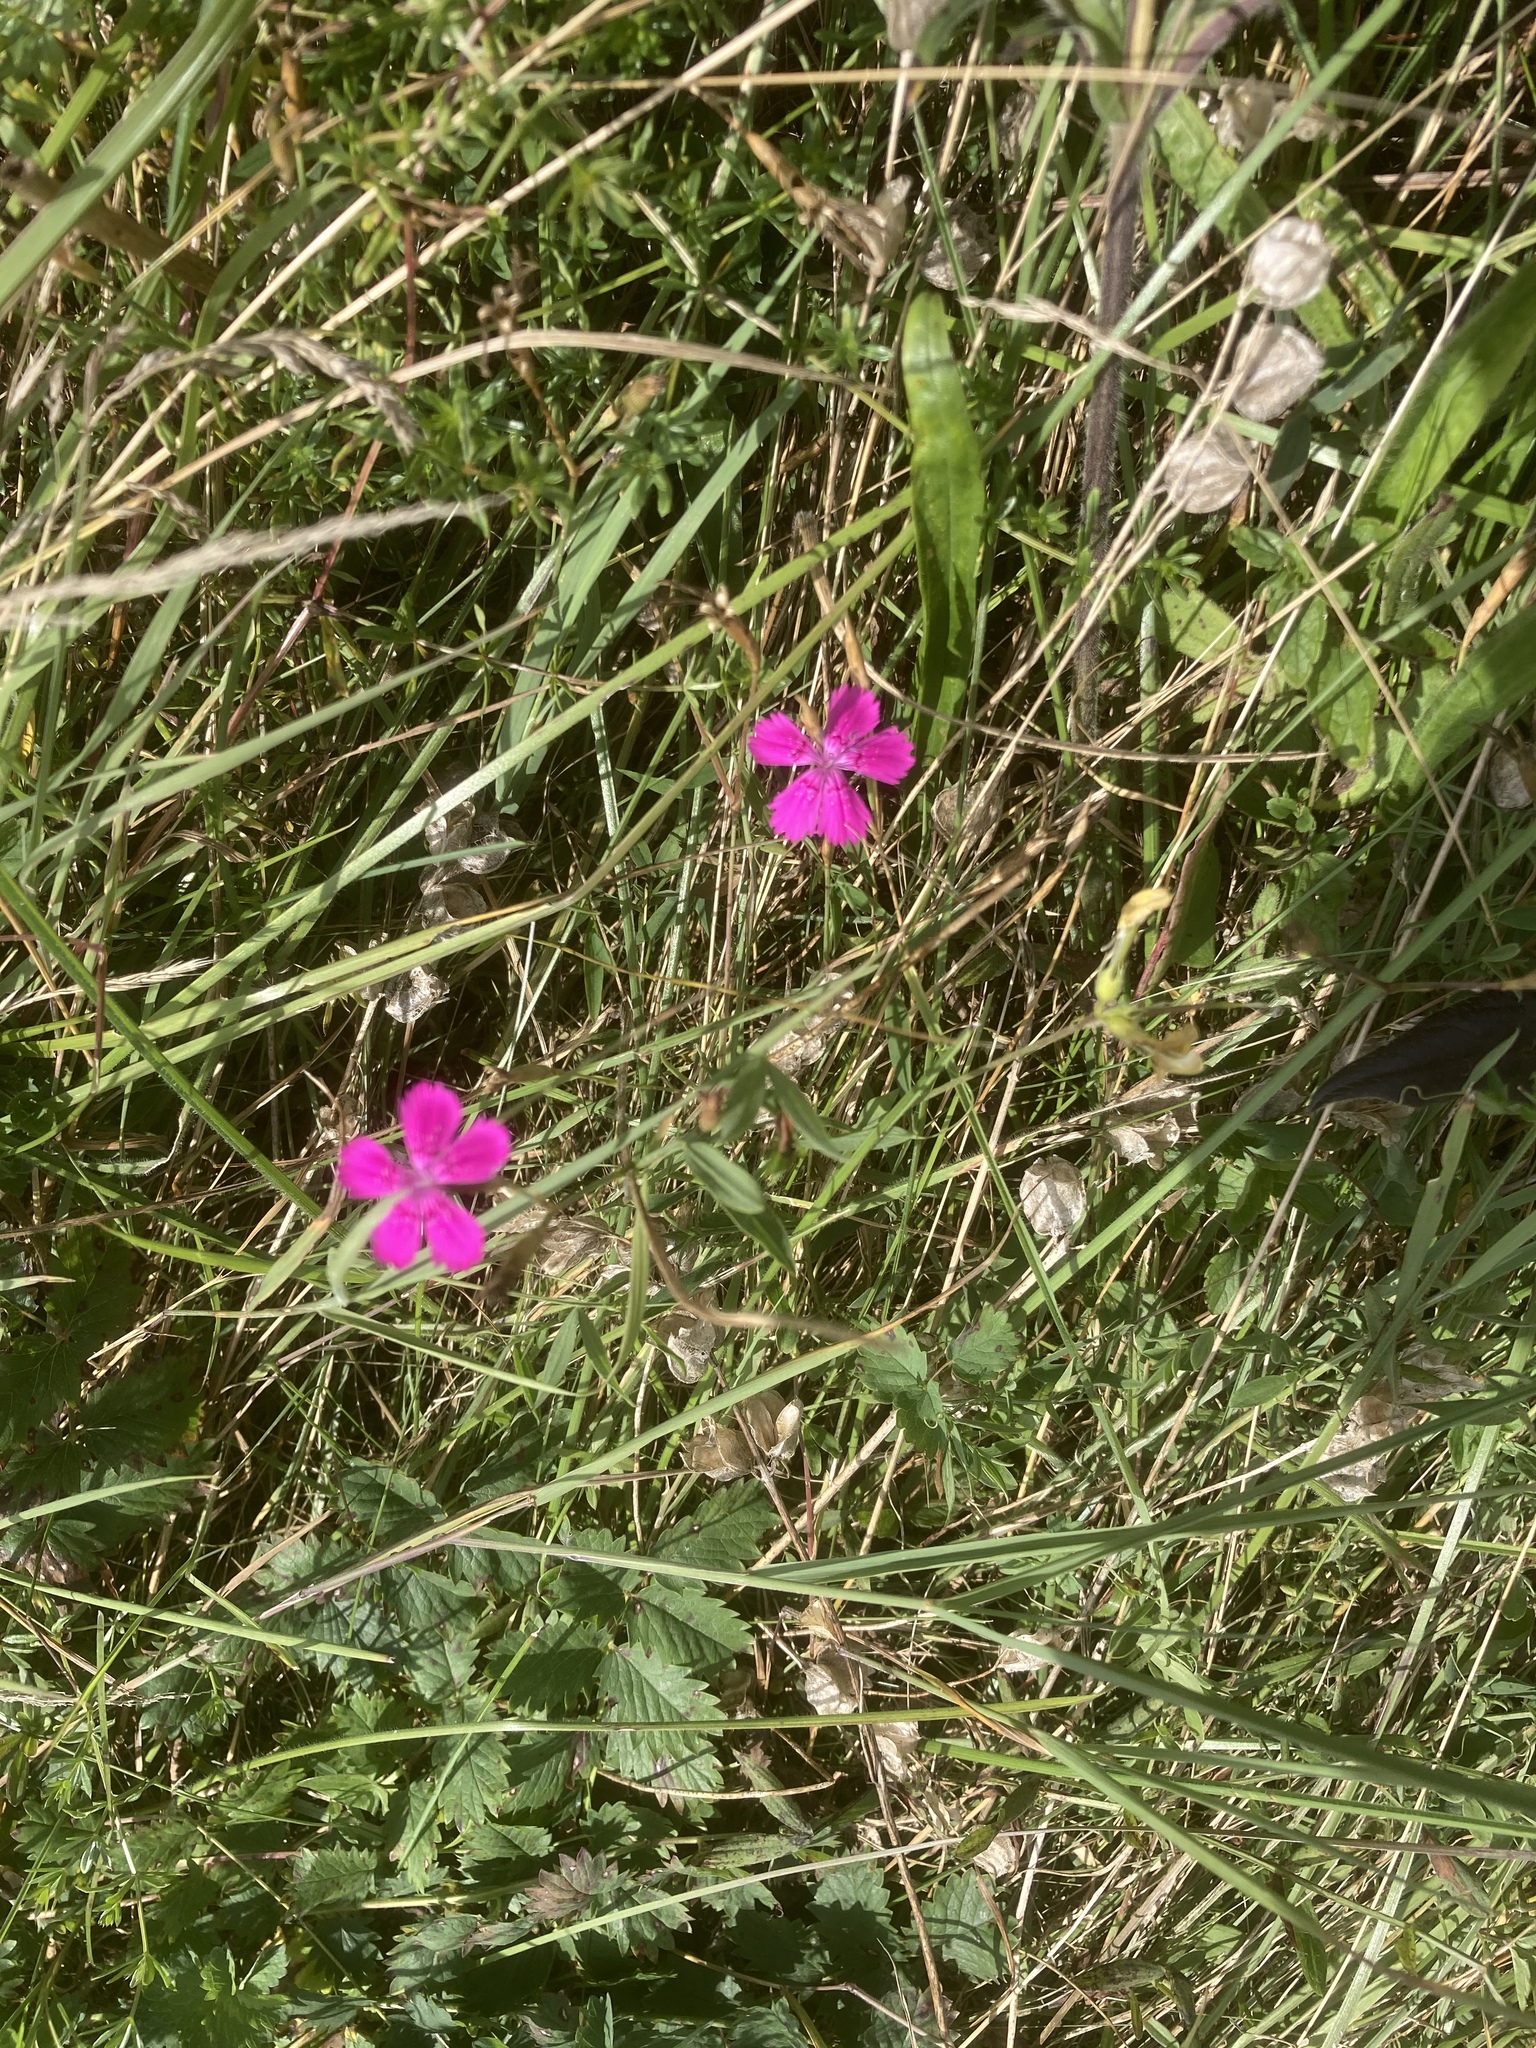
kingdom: Plantae
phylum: Tracheophyta
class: Magnoliopsida
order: Caryophyllales
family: Caryophyllaceae
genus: Dianthus
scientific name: Dianthus deltoides
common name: Maiden pink
